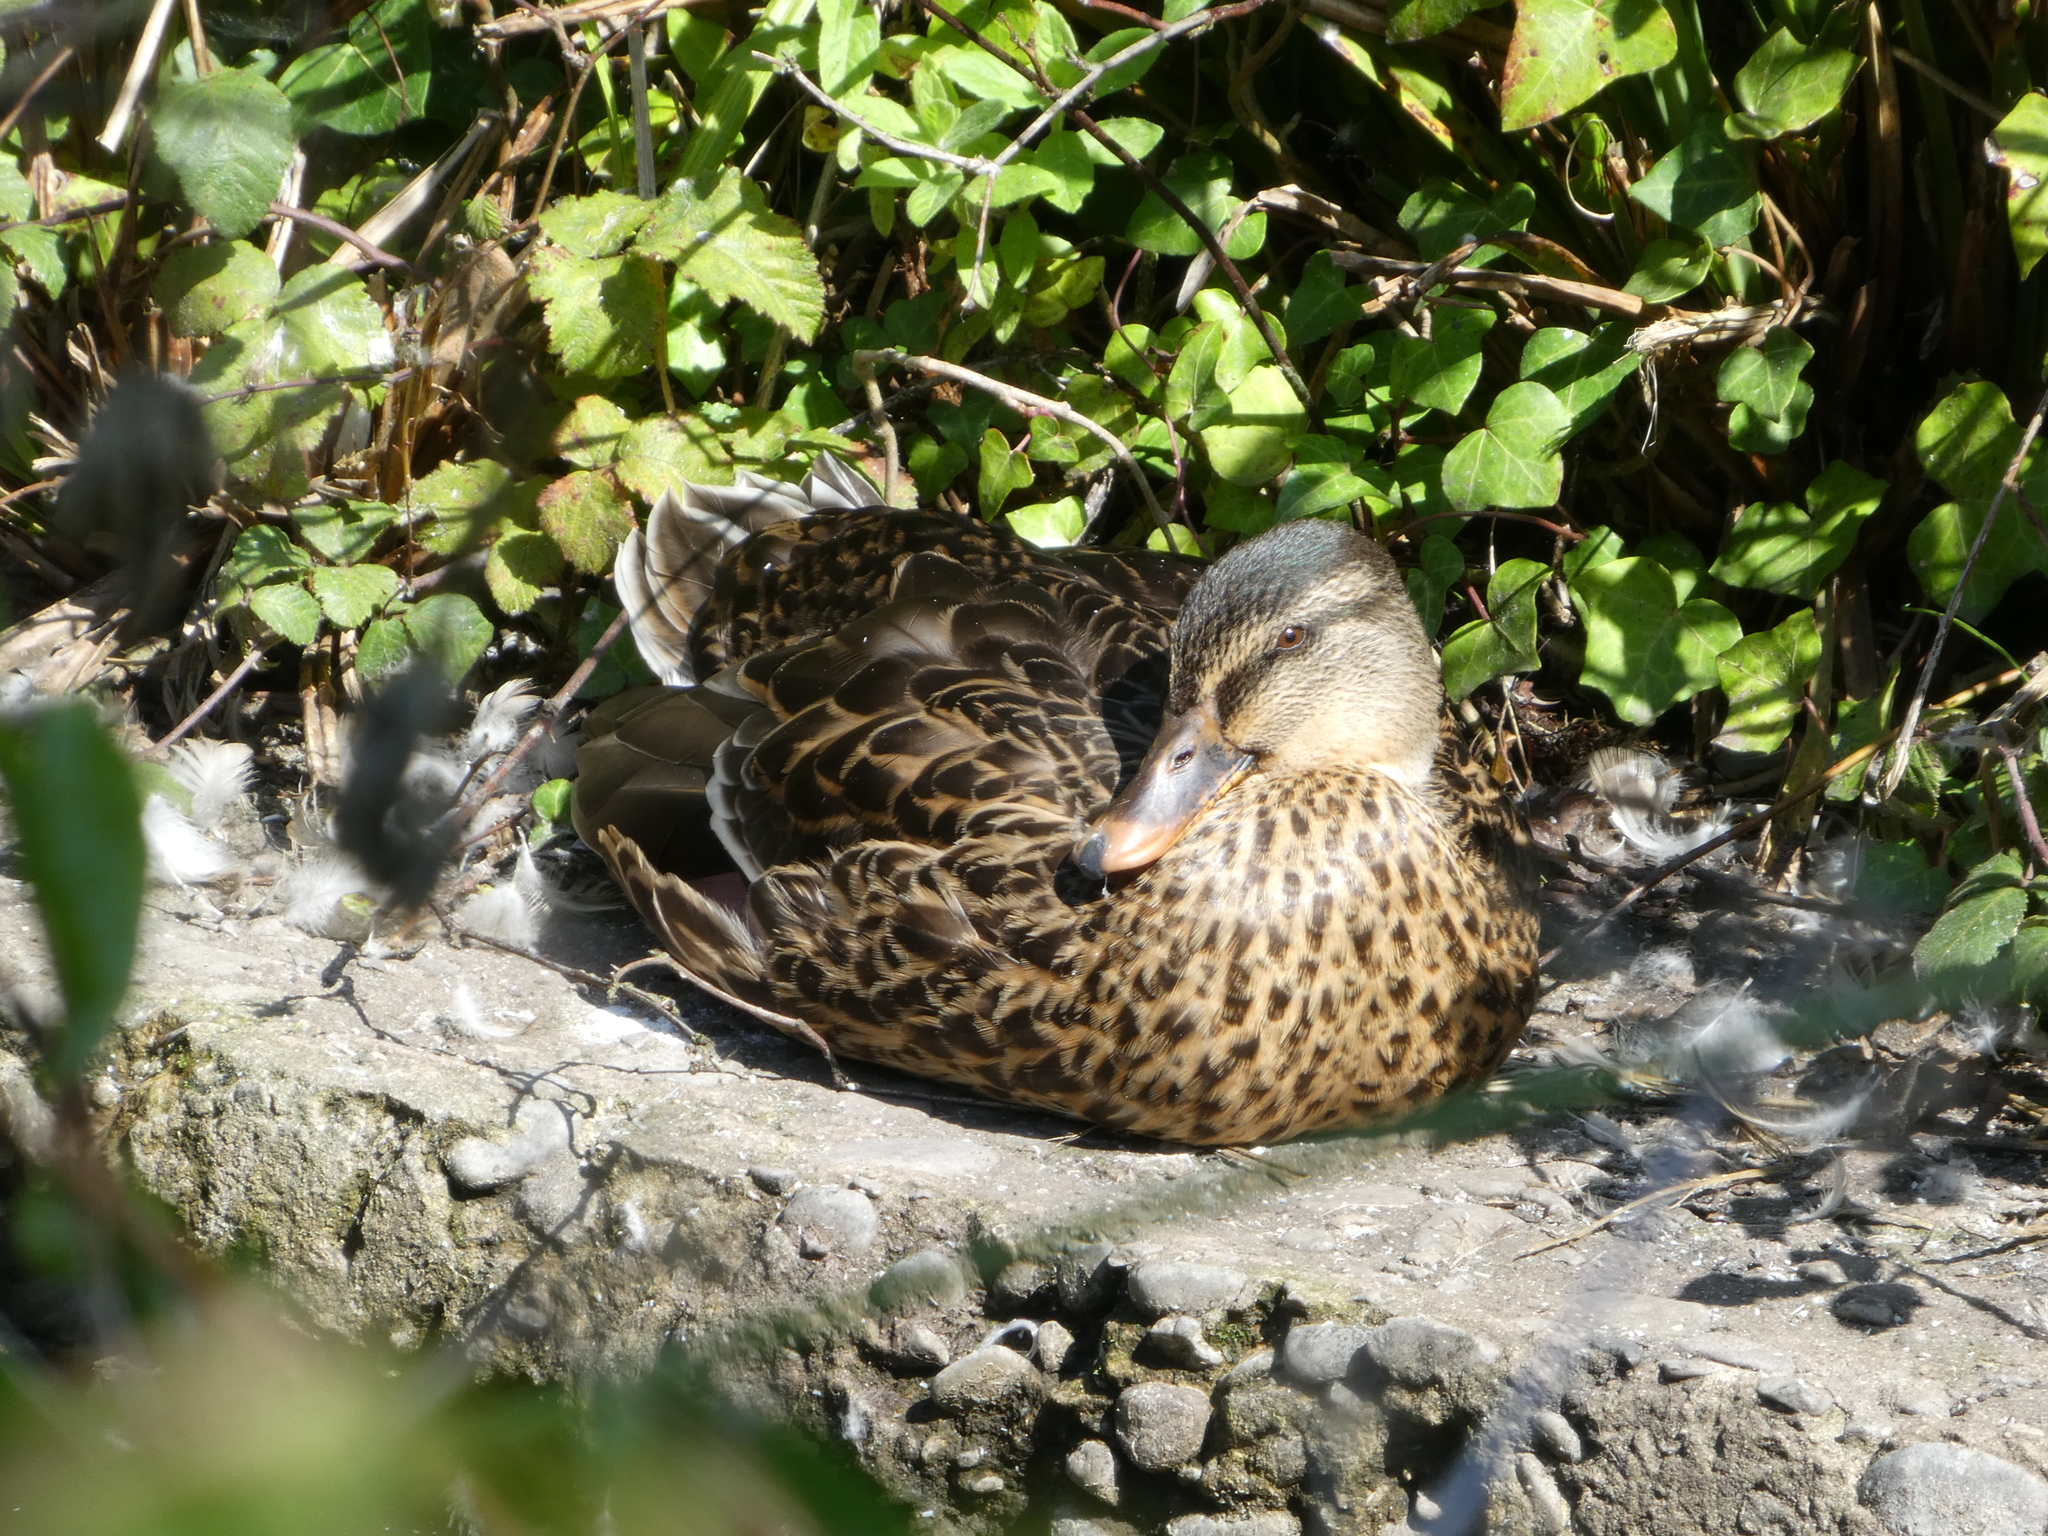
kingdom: Animalia
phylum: Chordata
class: Aves
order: Anseriformes
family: Anatidae
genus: Anas
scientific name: Anas platyrhynchos
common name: Mallard
